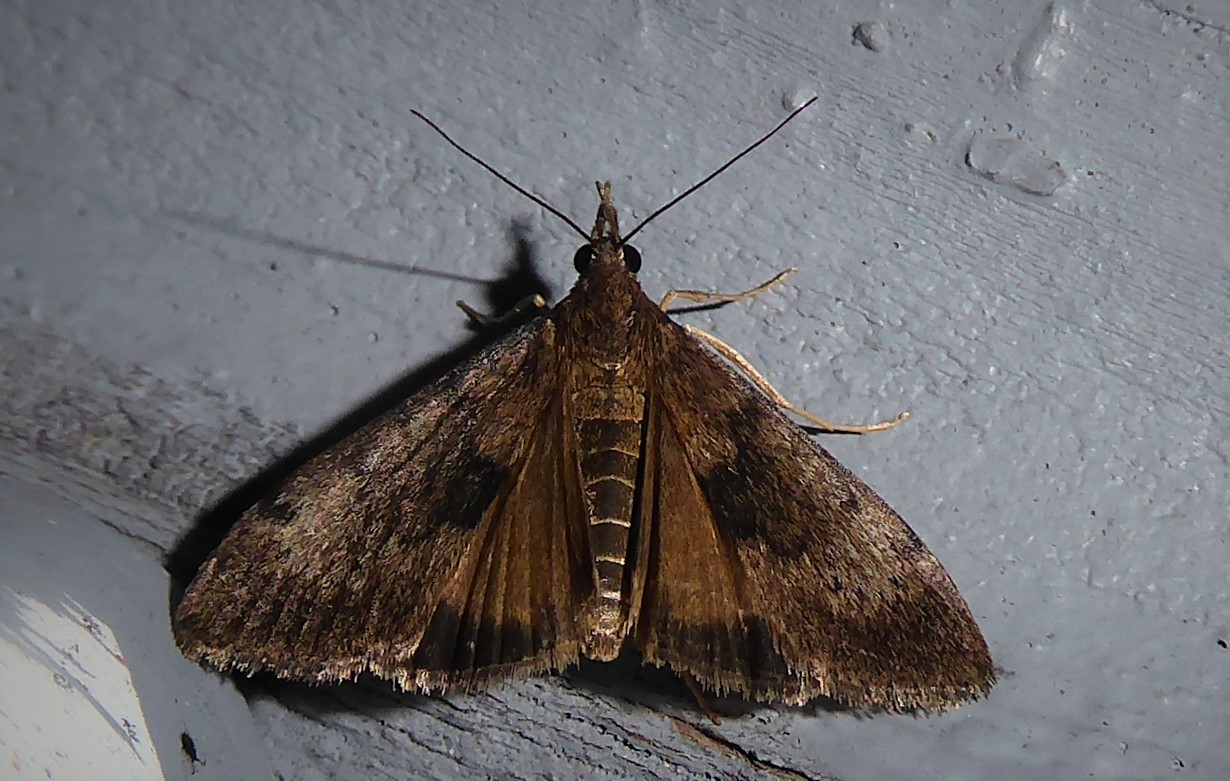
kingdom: Animalia
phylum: Arthropoda
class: Insecta
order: Lepidoptera
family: Crambidae
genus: Uresiphita
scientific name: Uresiphita
